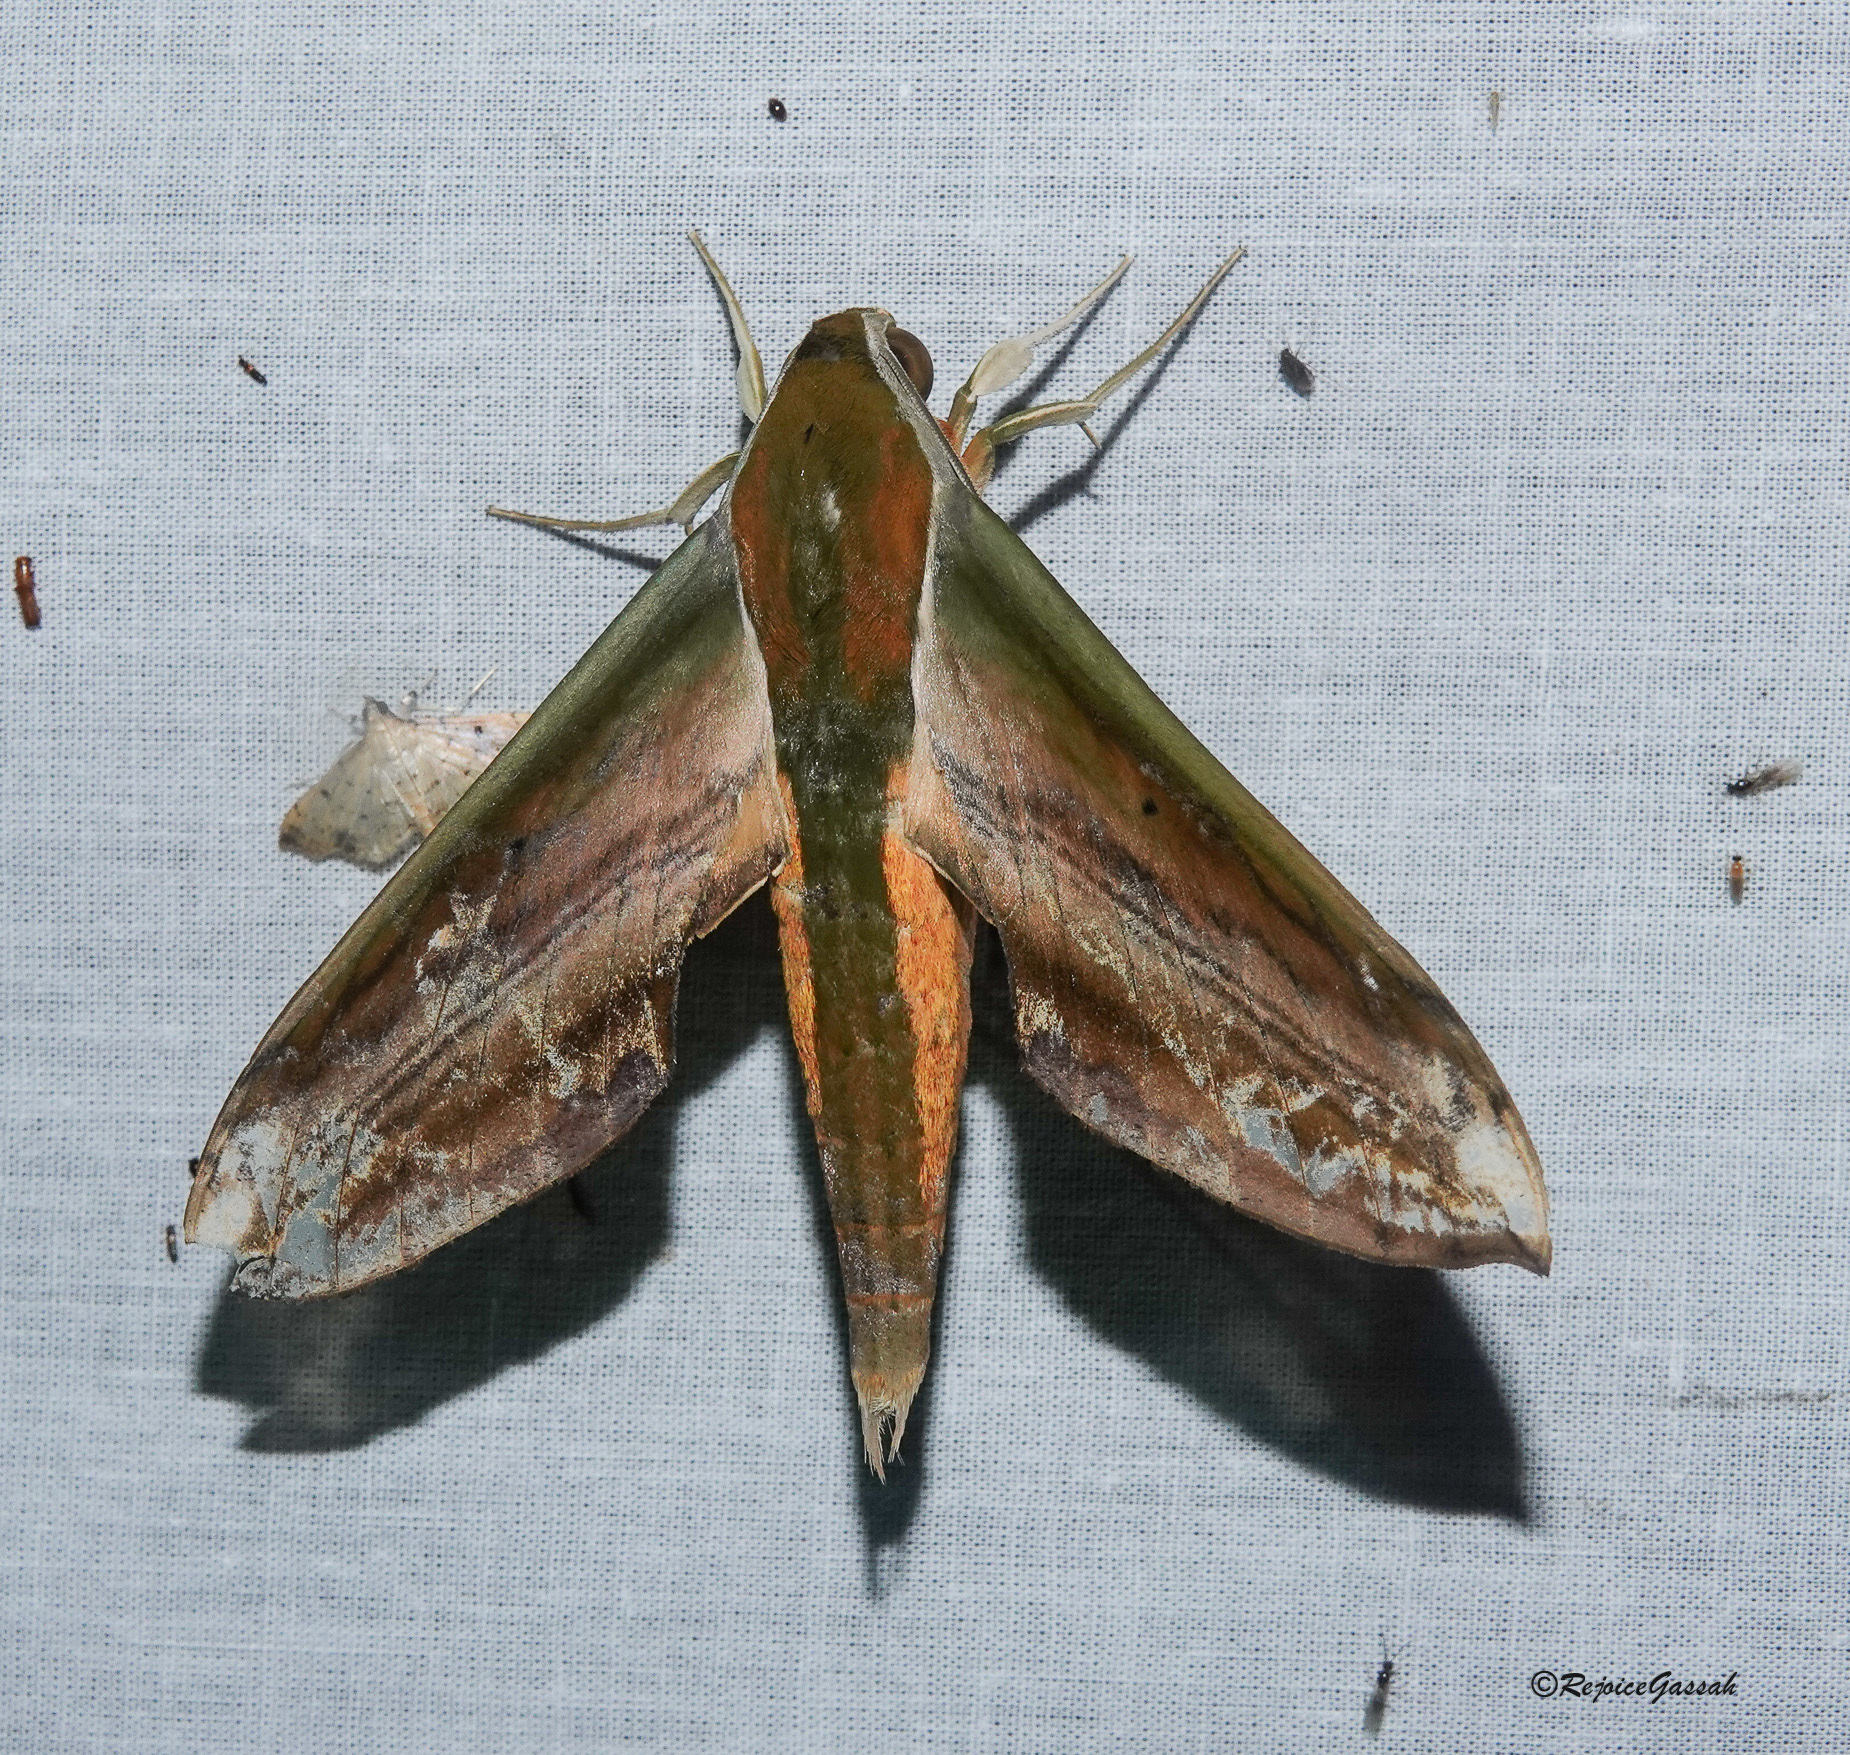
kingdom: Animalia
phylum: Arthropoda
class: Insecta
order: Lepidoptera
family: Sphingidae
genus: Theretra
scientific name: Theretra nessus
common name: Yam hawk moth
